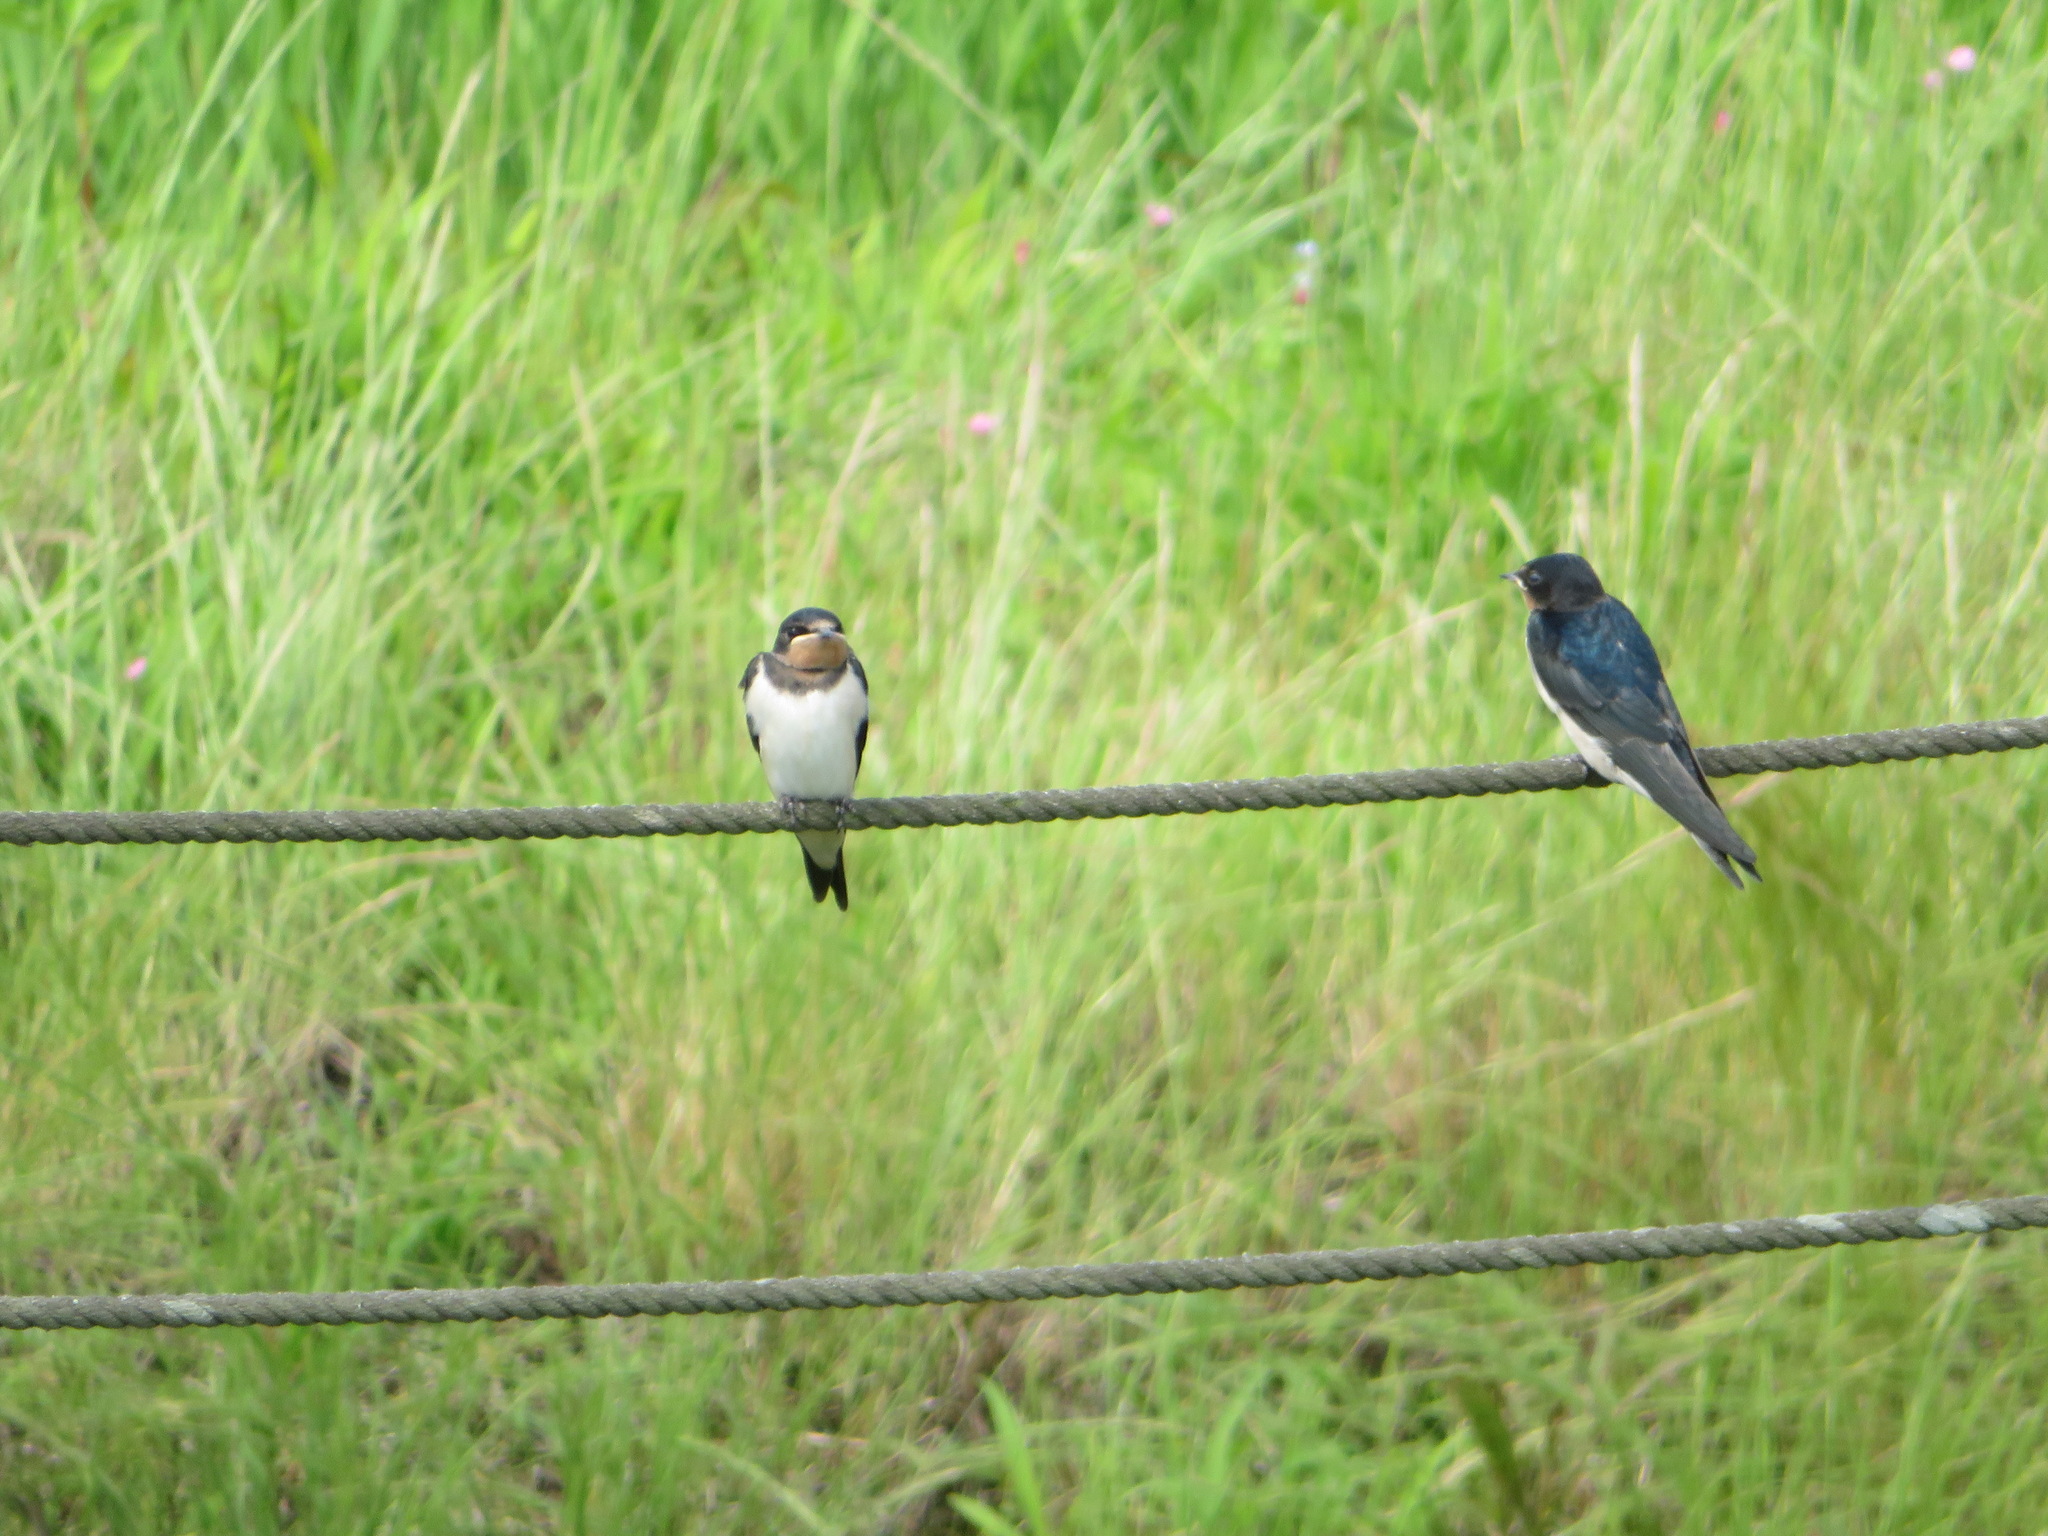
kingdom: Animalia
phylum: Chordata
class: Aves
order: Passeriformes
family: Hirundinidae
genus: Hirundo
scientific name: Hirundo rustica
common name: Barn swallow
